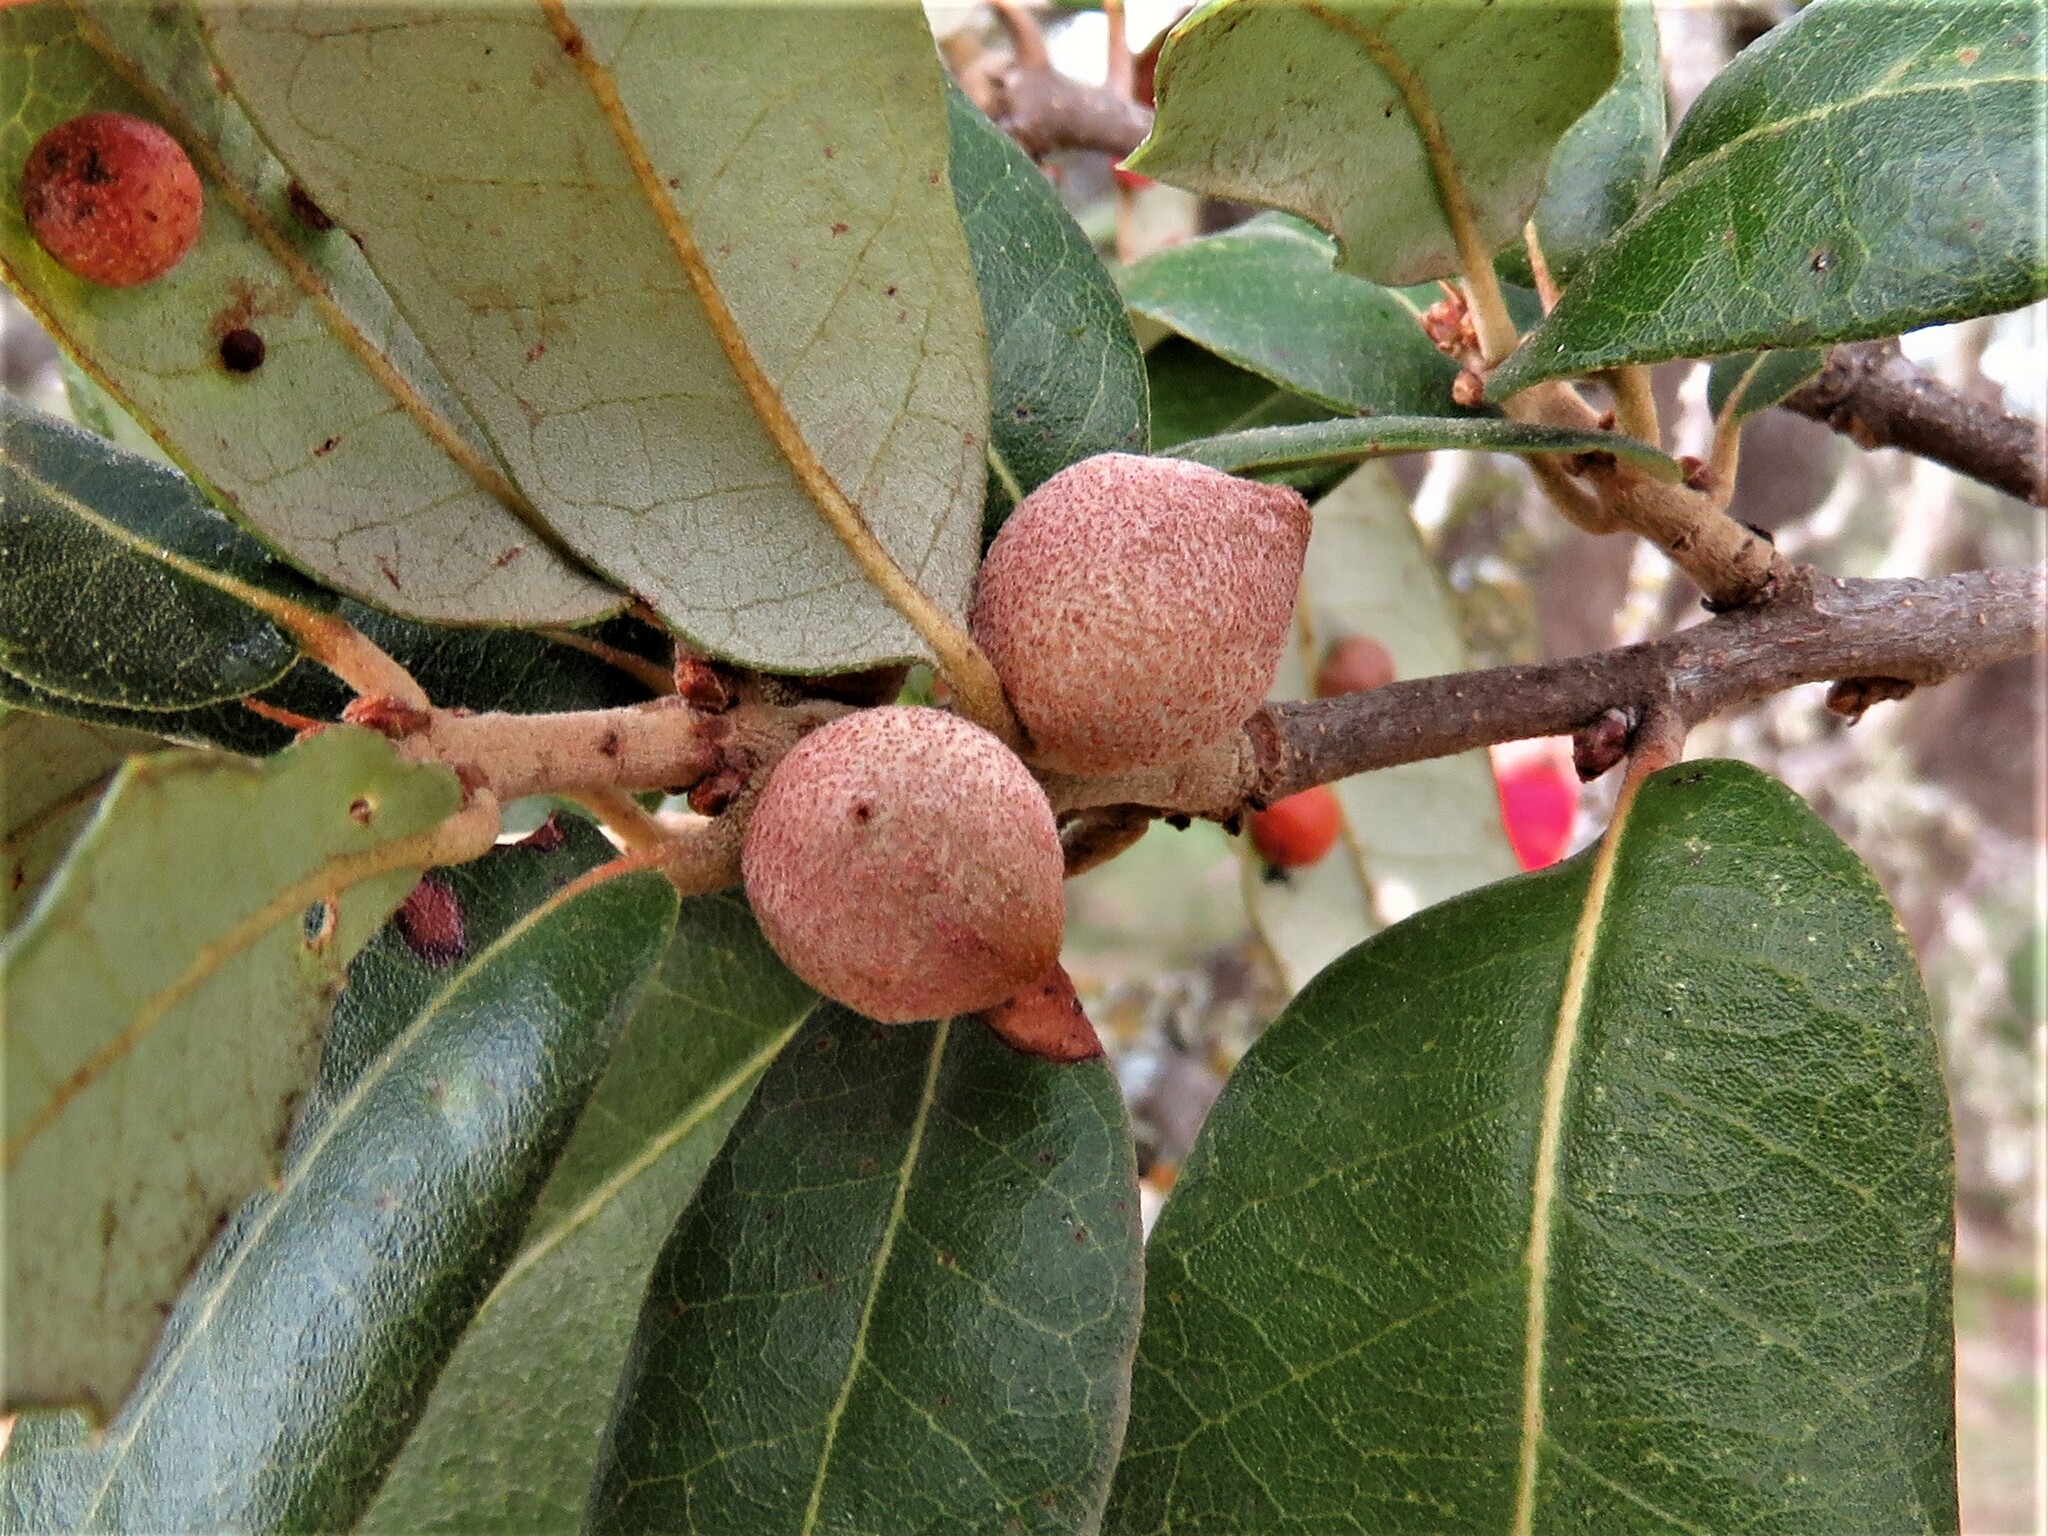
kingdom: Animalia
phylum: Arthropoda
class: Insecta
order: Hymenoptera
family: Cynipidae
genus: Disholcaspis
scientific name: Disholcaspis
